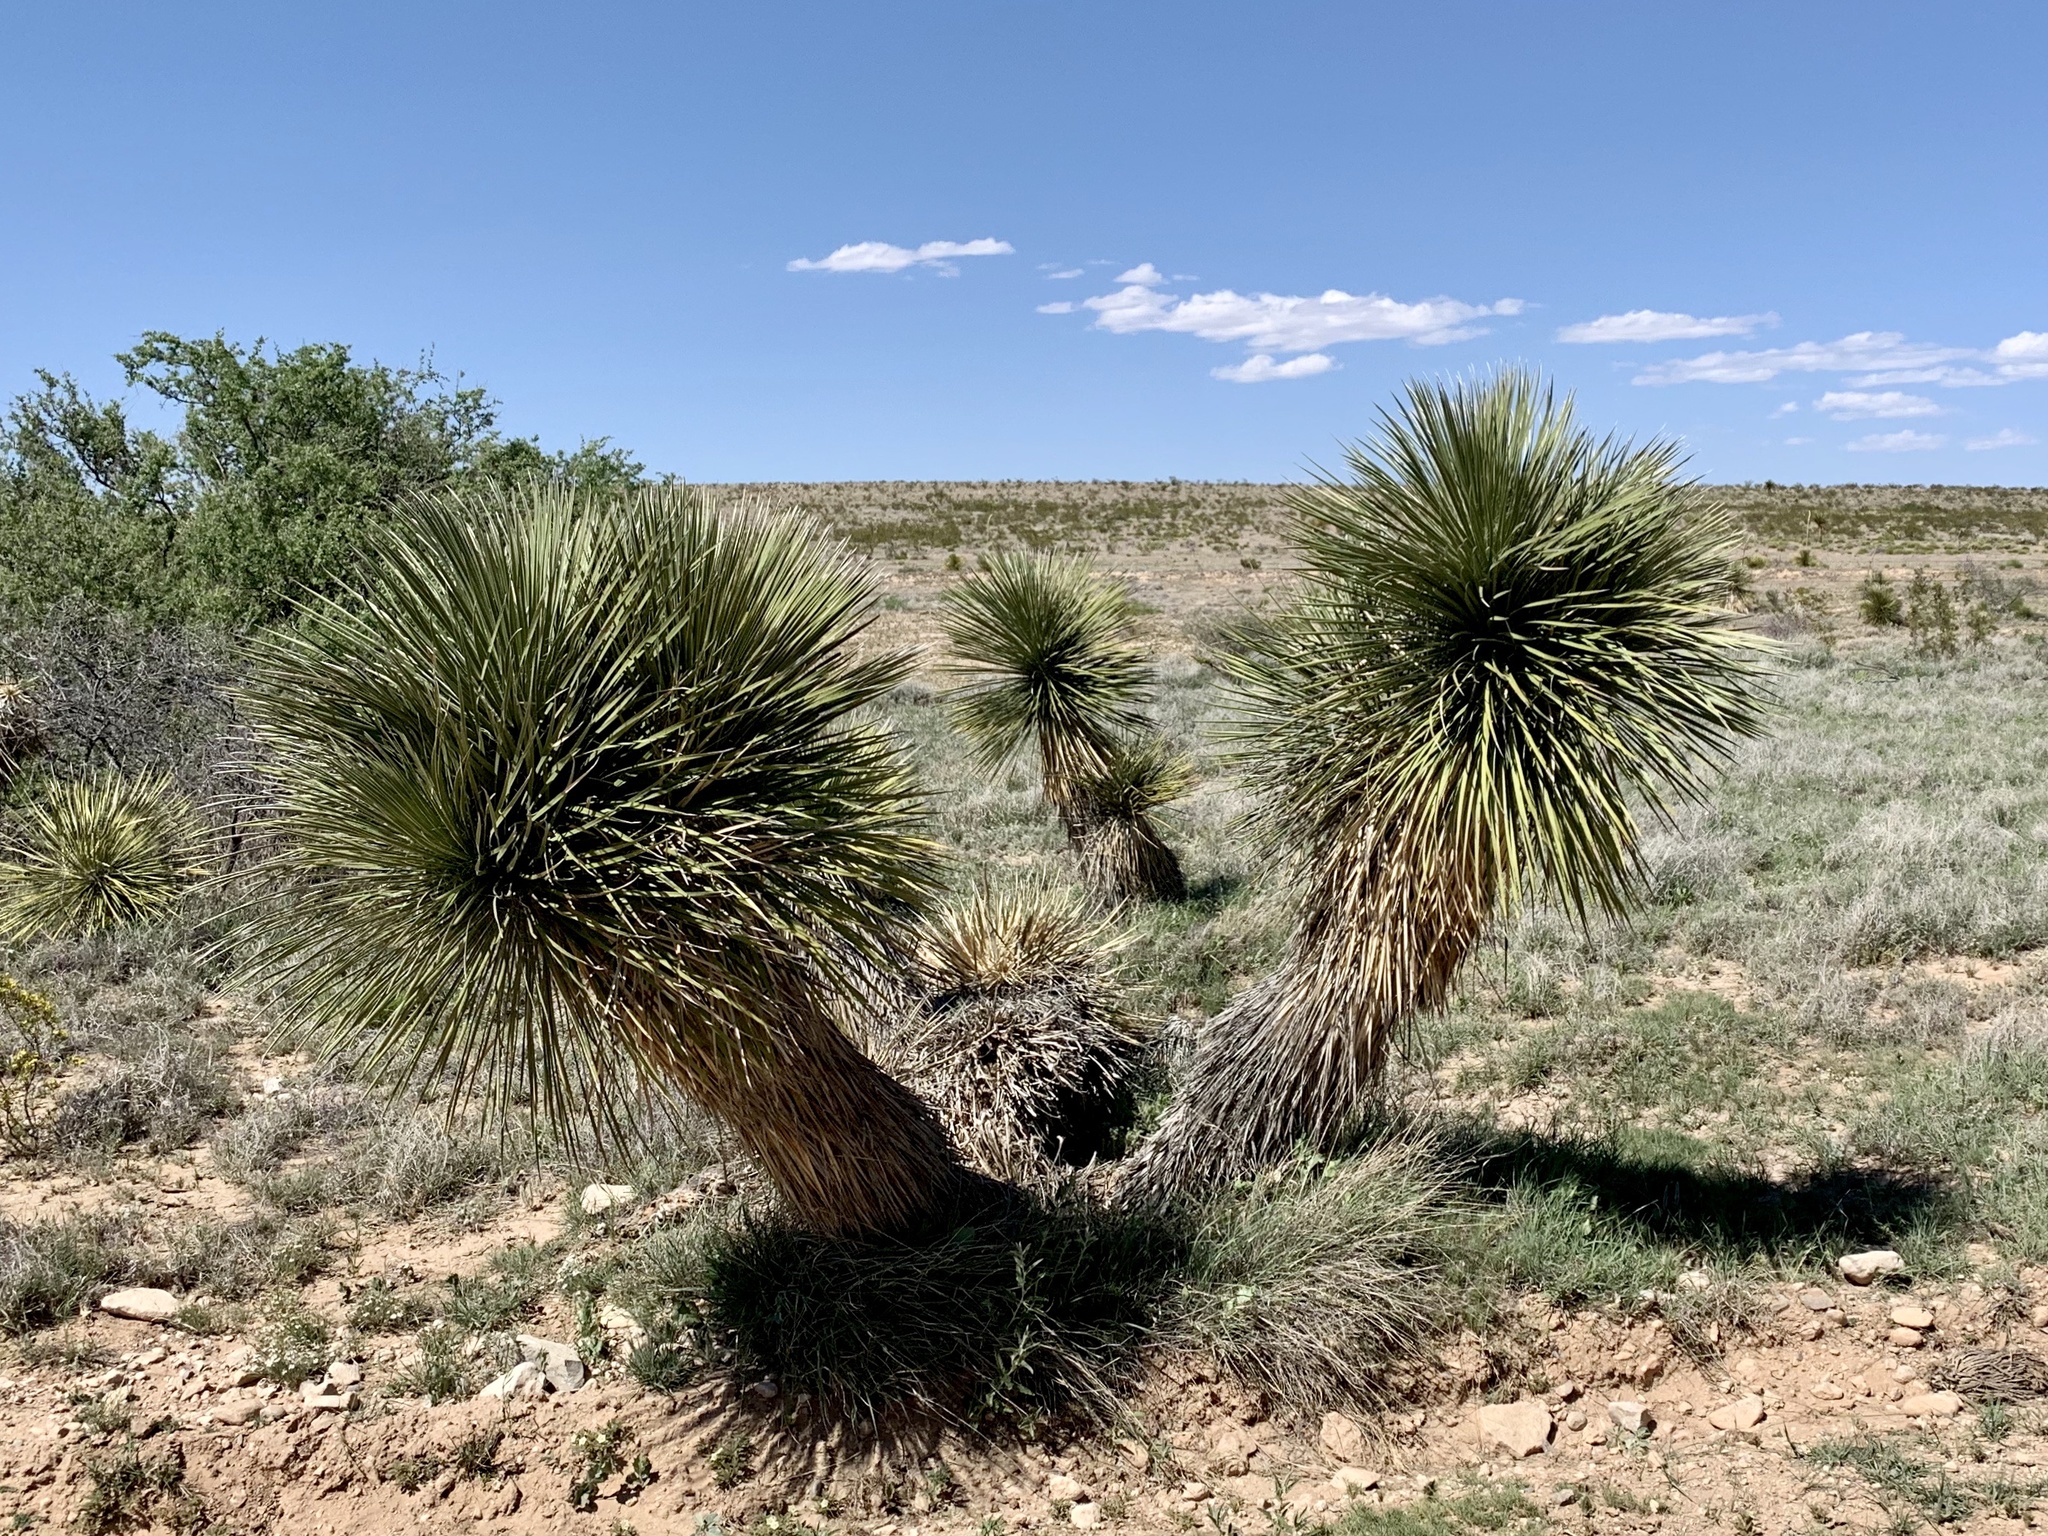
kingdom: Plantae
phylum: Tracheophyta
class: Liliopsida
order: Asparagales
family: Asparagaceae
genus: Yucca
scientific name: Yucca elata
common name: Palmella
